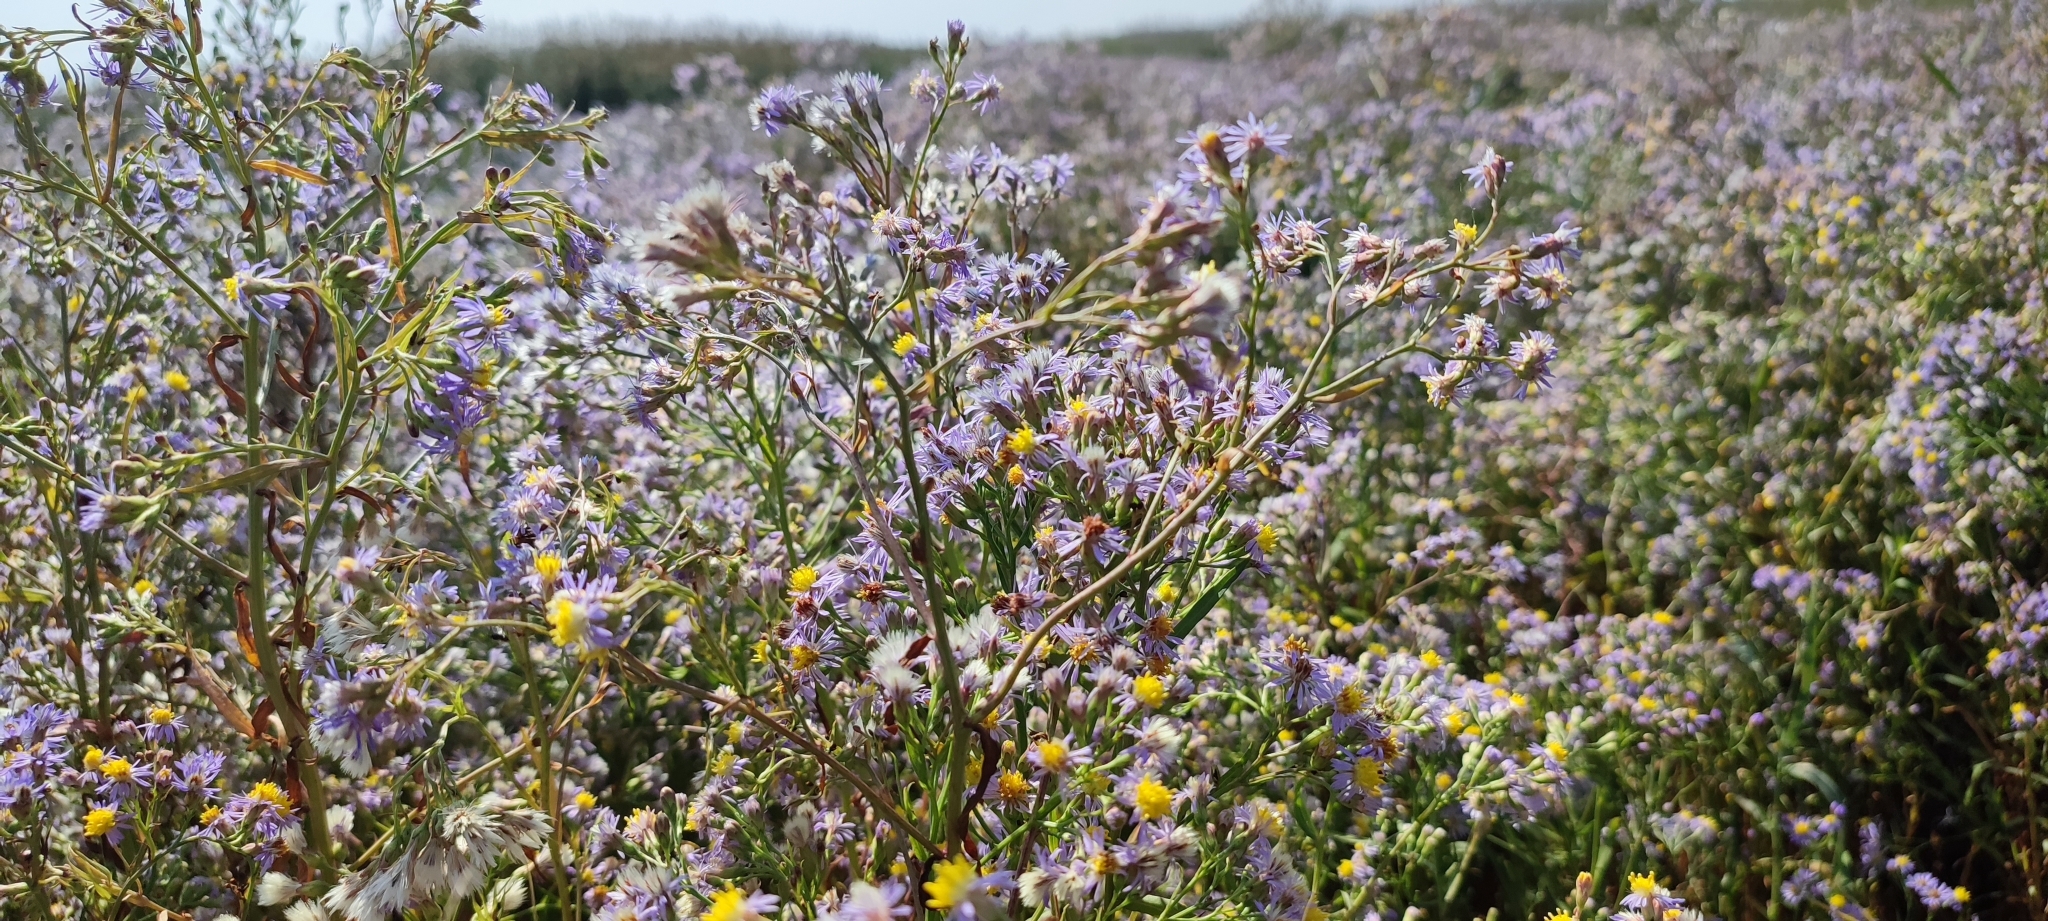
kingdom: Plantae
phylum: Tracheophyta
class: Magnoliopsida
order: Asterales
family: Asteraceae
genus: Tripolium
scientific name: Tripolium pannonicum
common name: Sea aster
